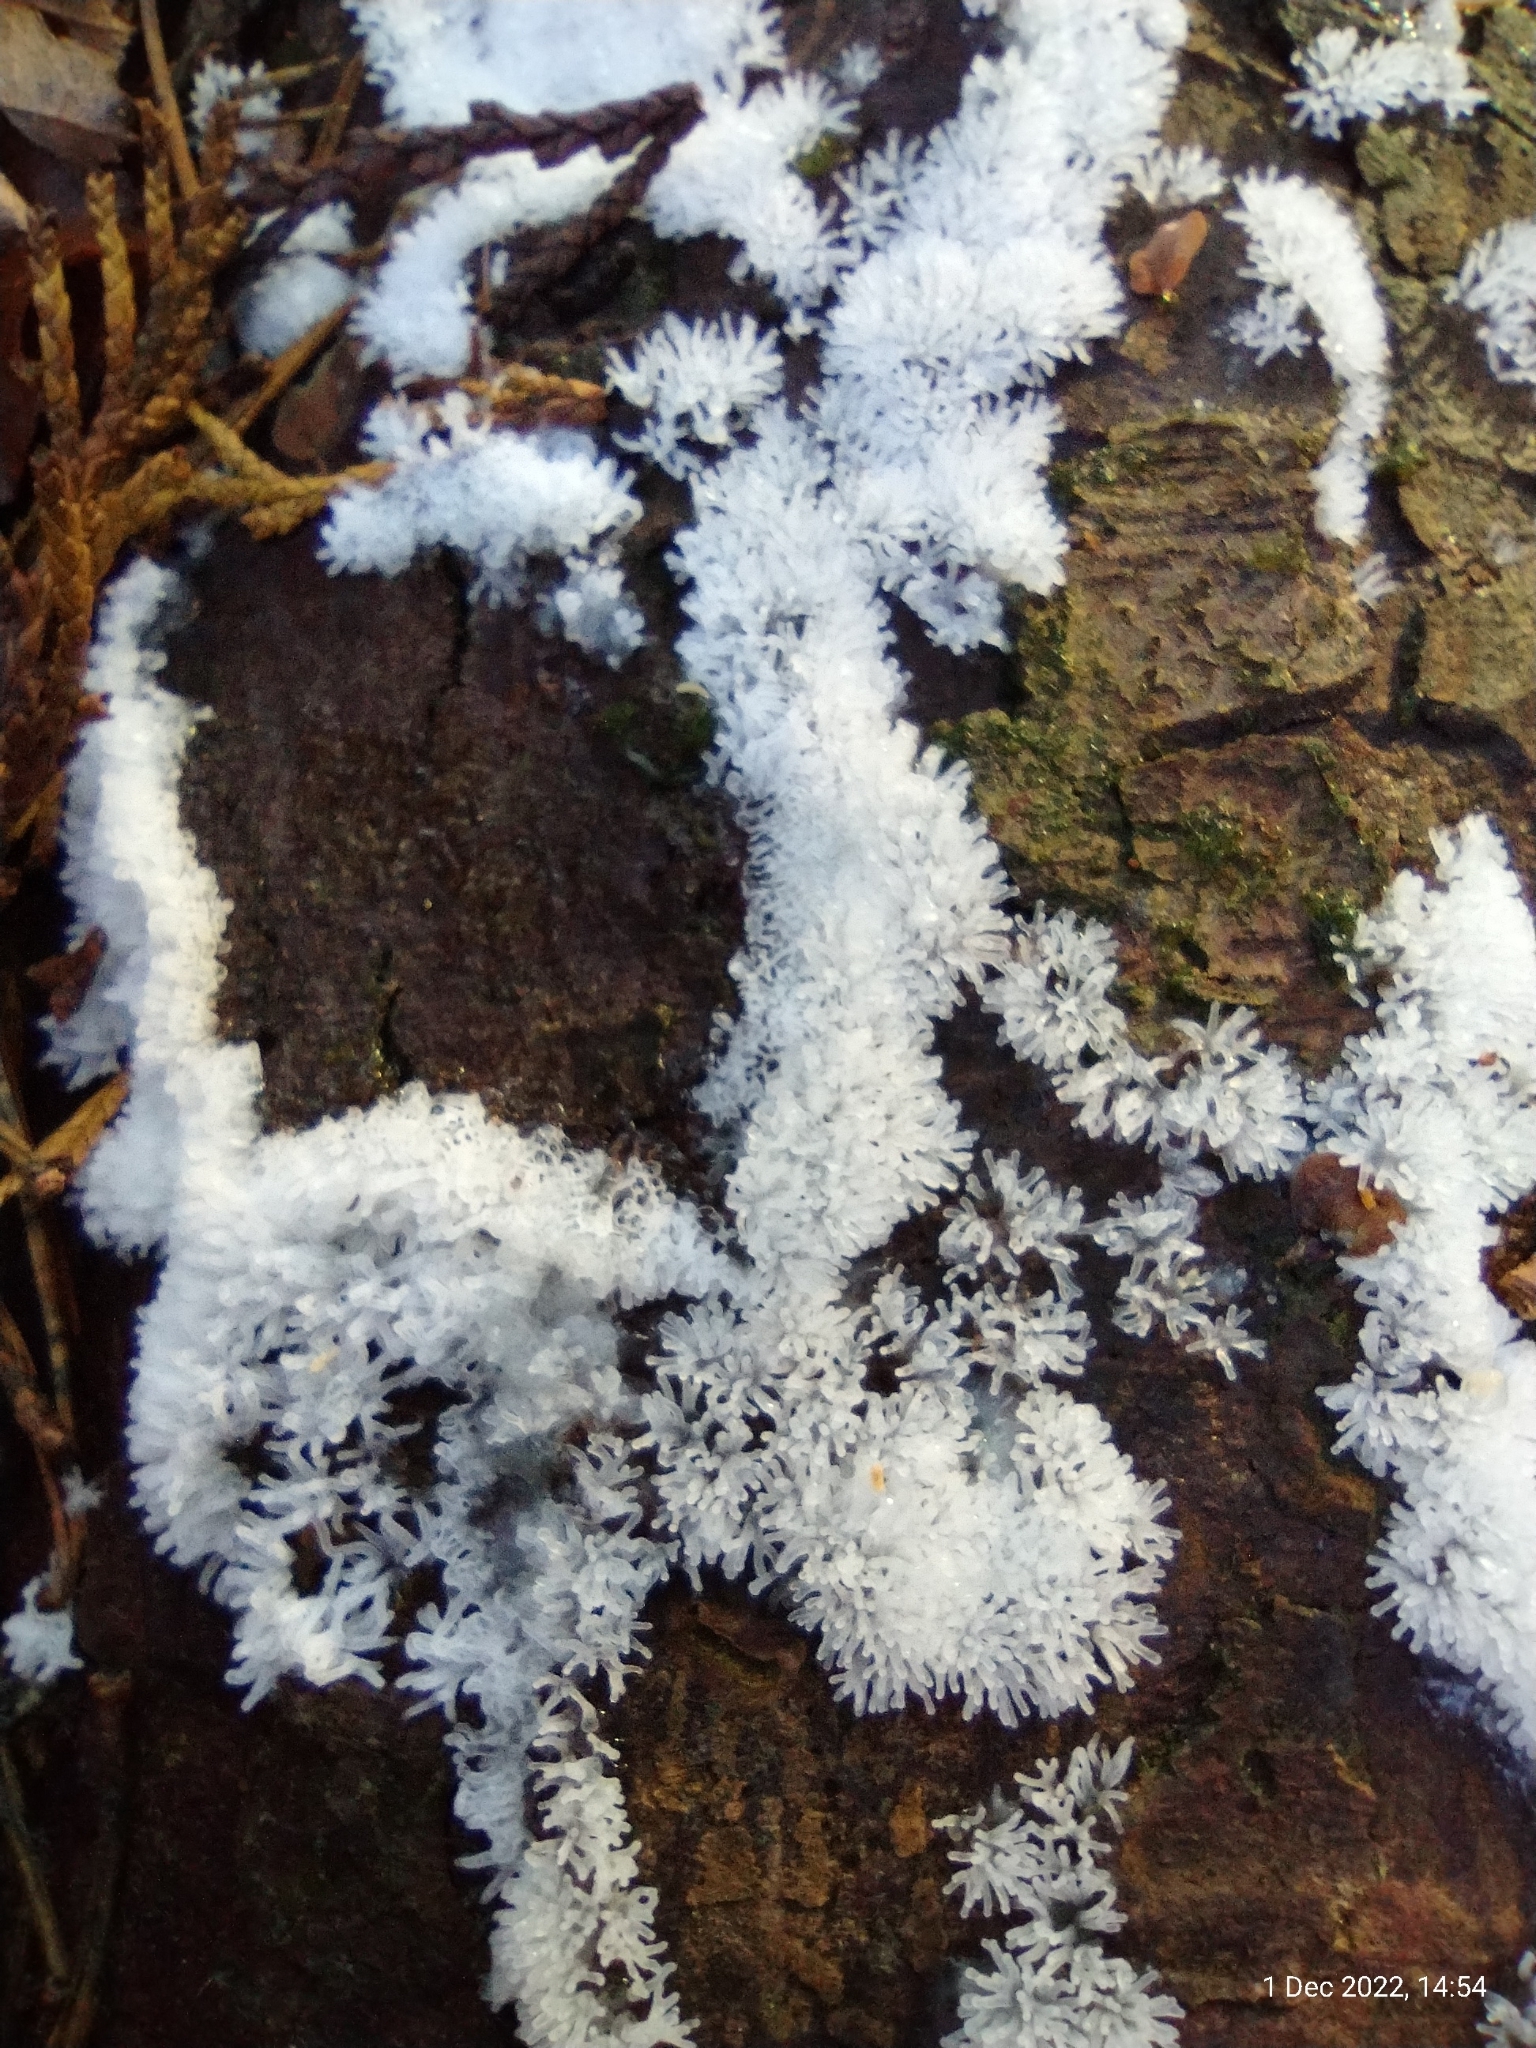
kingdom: Protozoa
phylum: Mycetozoa
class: Protosteliomycetes
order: Ceratiomyxales
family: Ceratiomyxaceae
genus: Ceratiomyxa
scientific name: Ceratiomyxa fruticulosa
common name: Honeycomb coral slime mold
